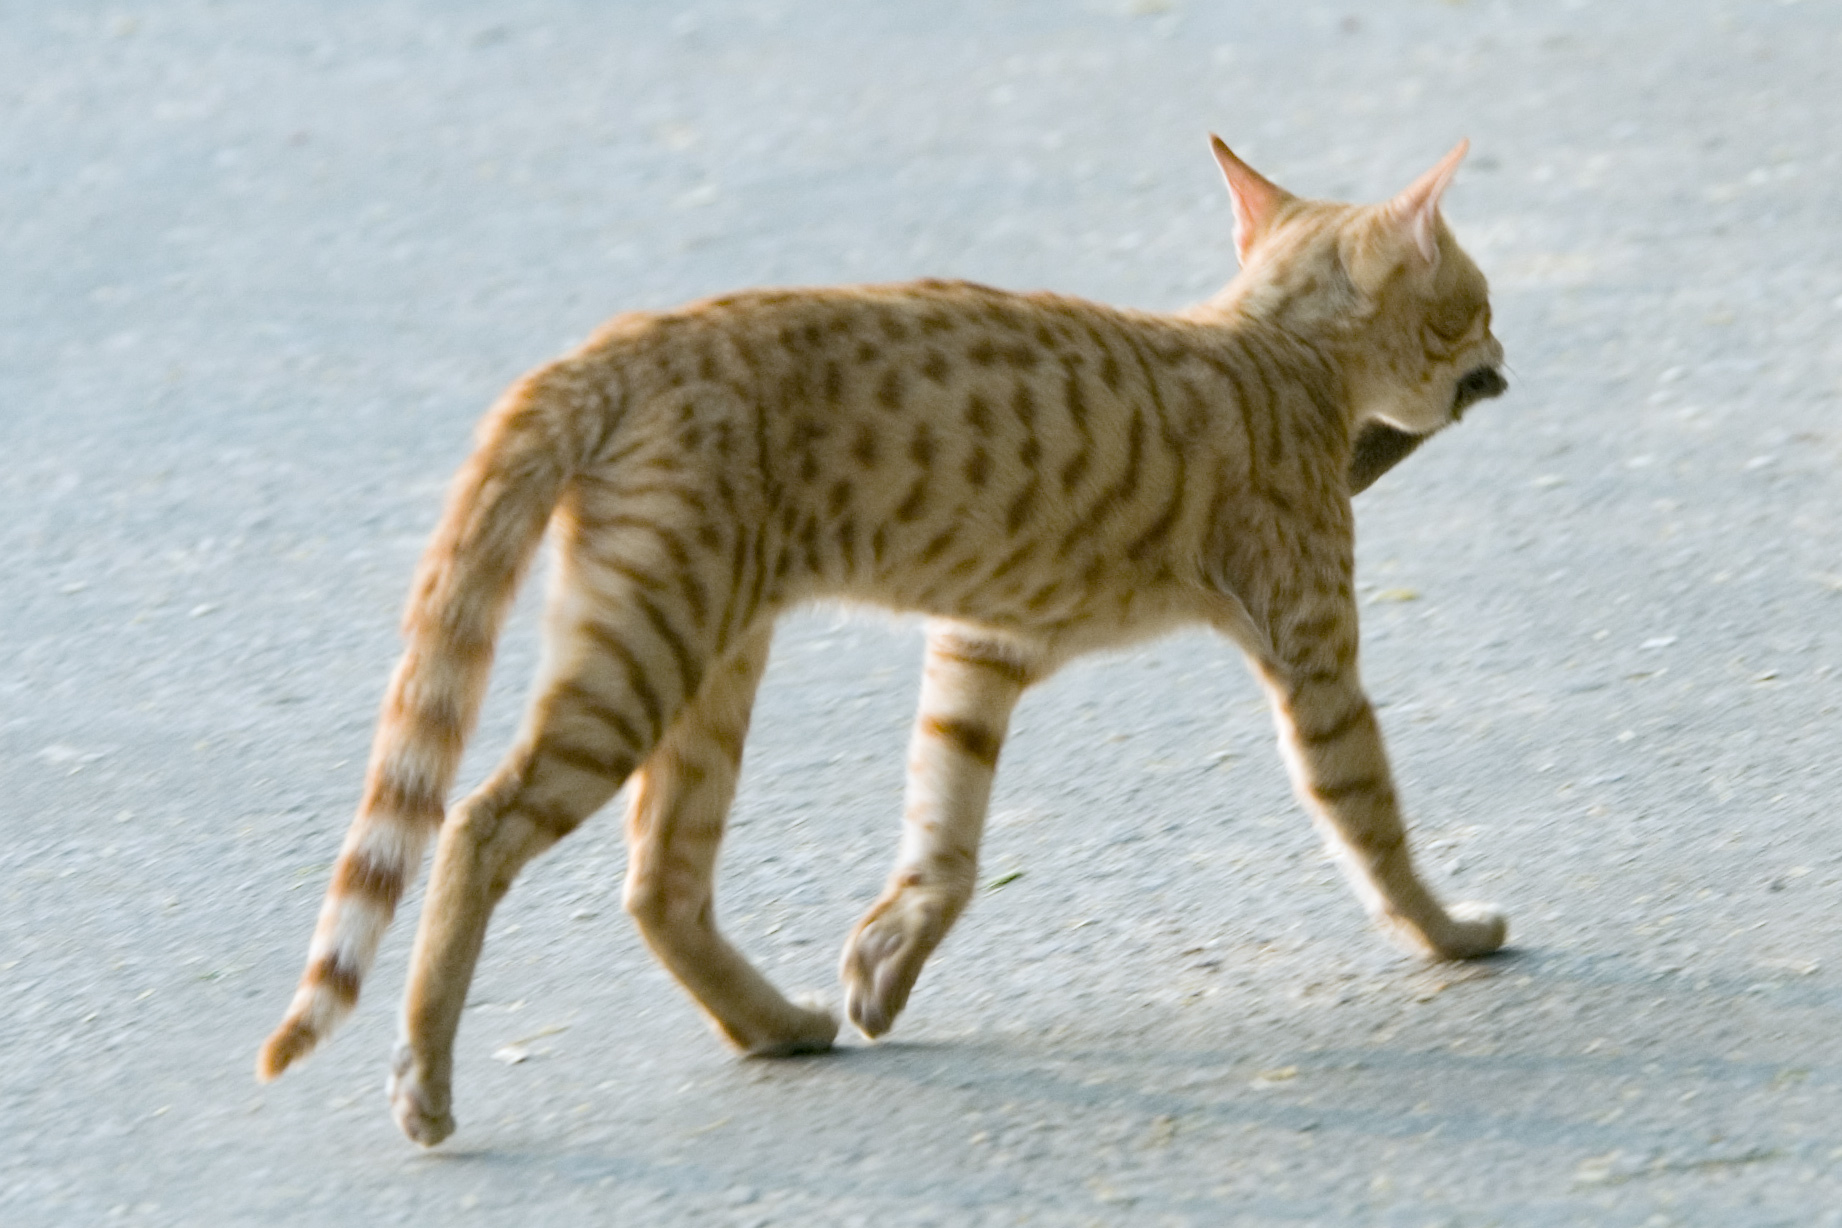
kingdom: Animalia
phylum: Chordata
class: Mammalia
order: Carnivora
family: Felidae
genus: Felis
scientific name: Felis catus
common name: Domestic cat
